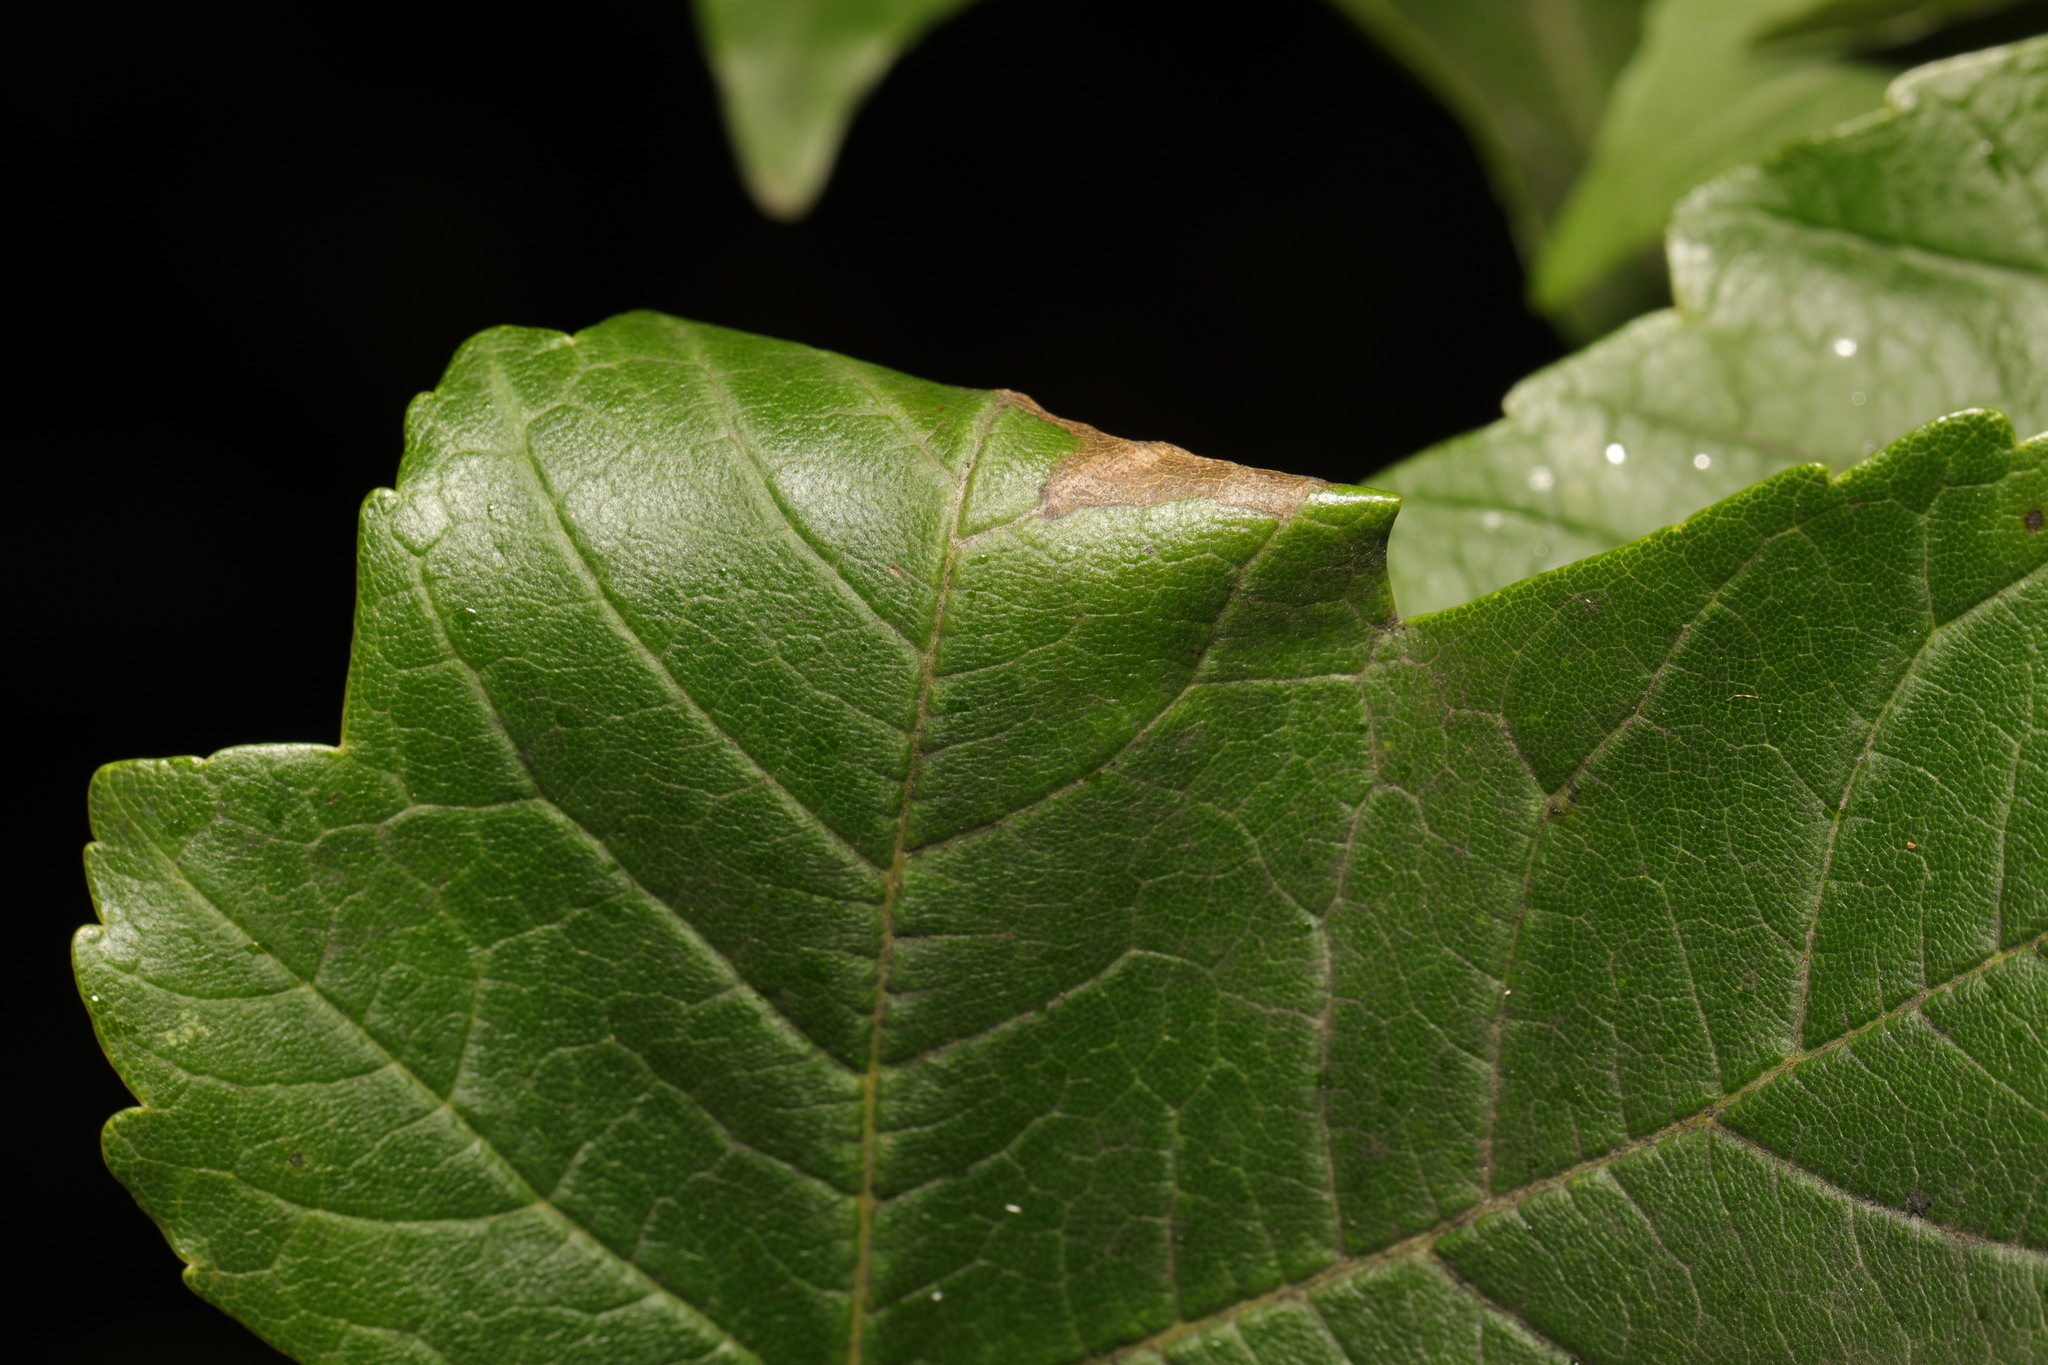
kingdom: Animalia
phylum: Arthropoda
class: Insecta
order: Lepidoptera
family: Gracillariidae
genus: Caloptilia
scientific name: Caloptilia rufipennella
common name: Small red slender
